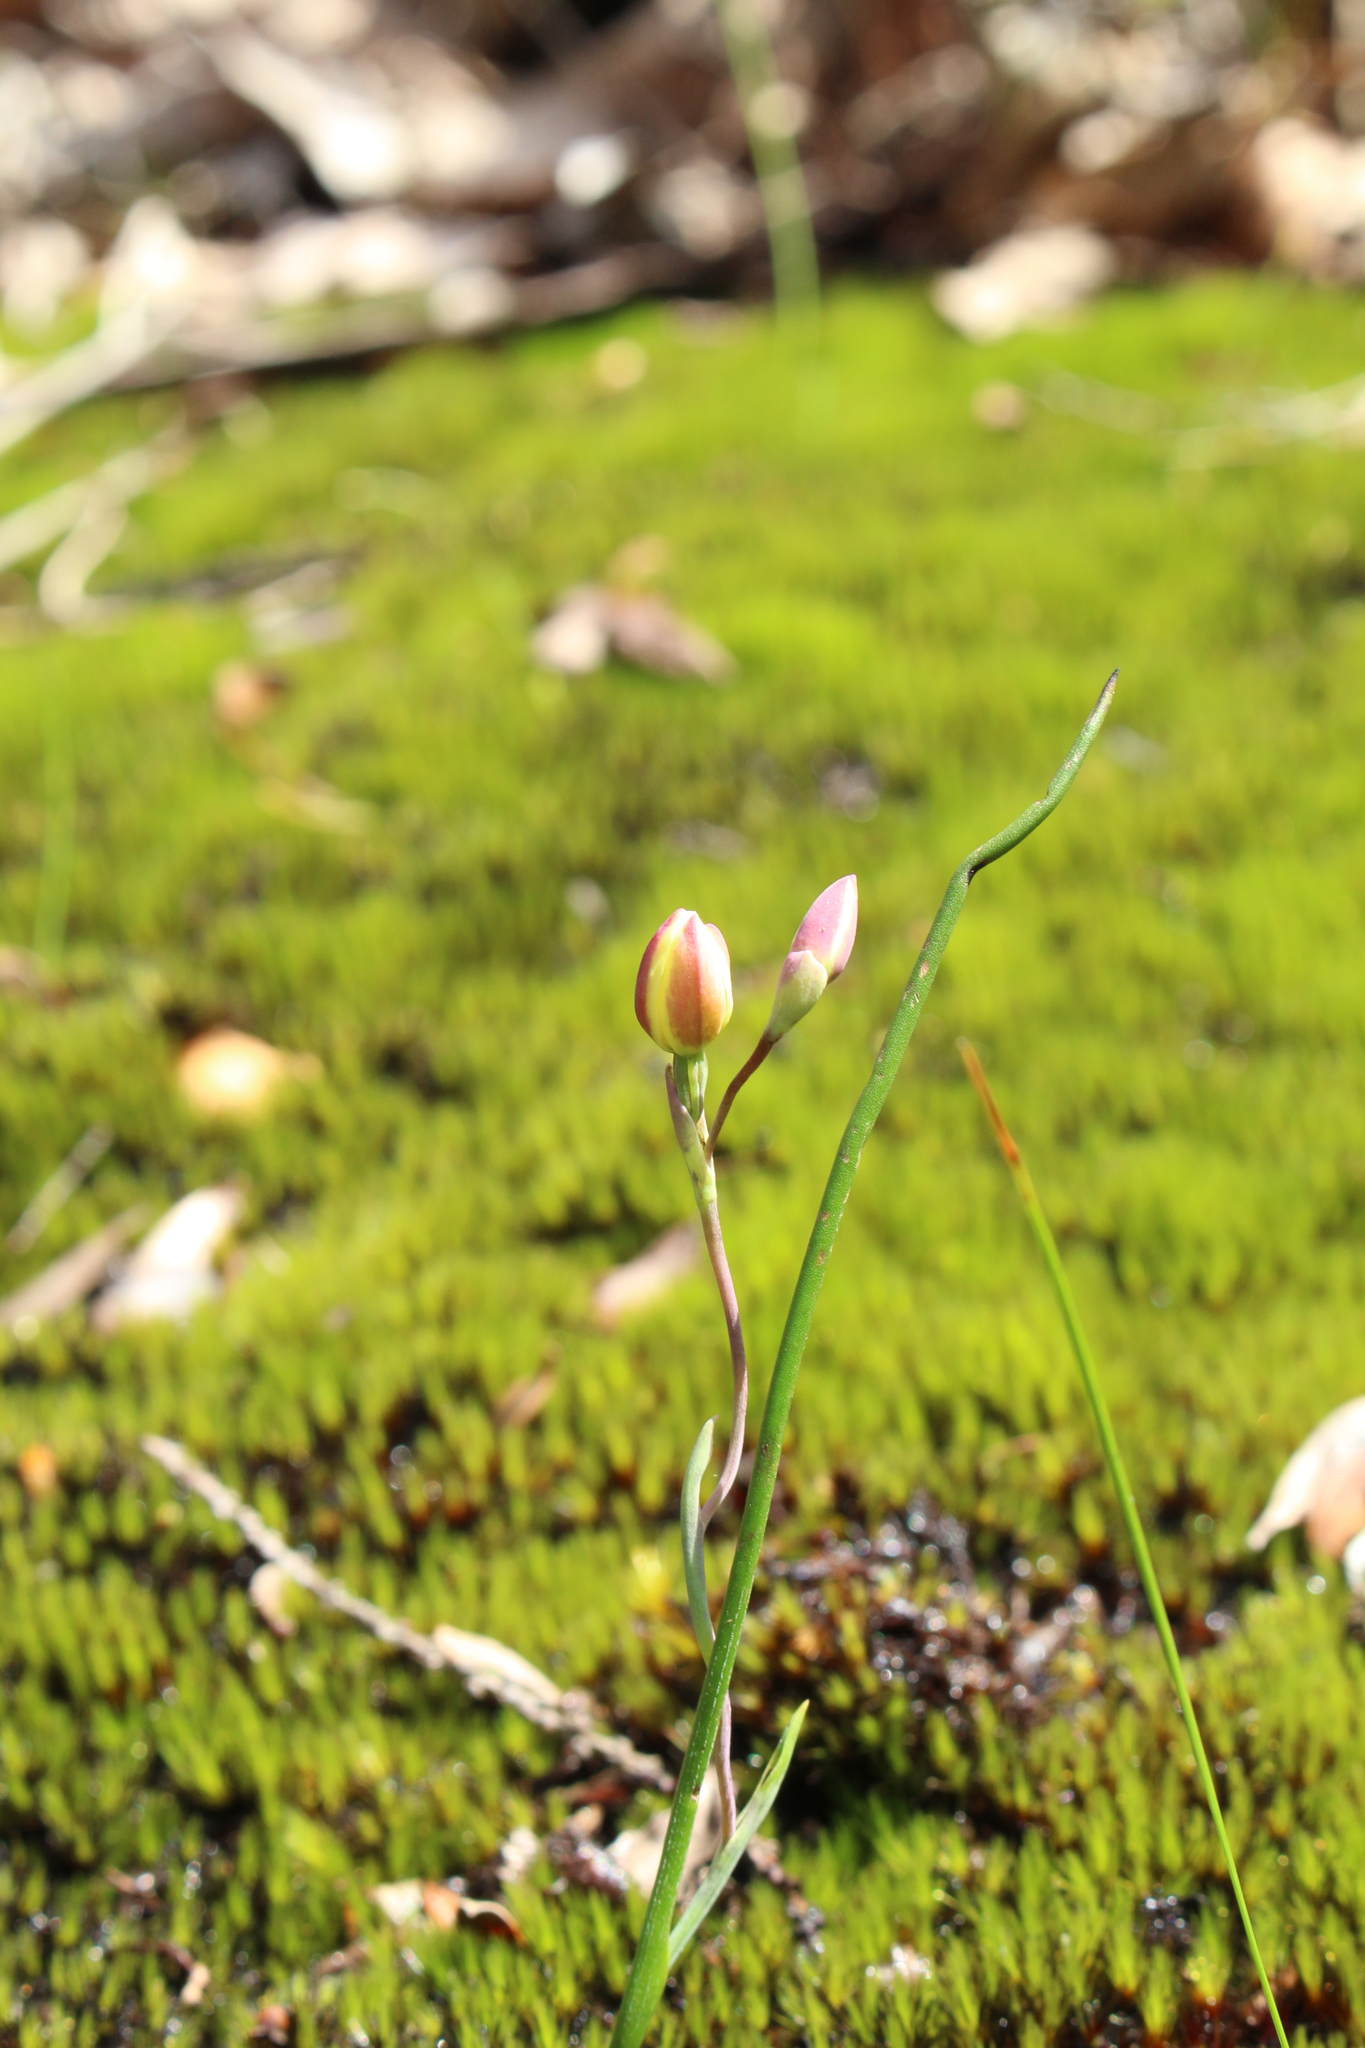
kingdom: Plantae
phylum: Tracheophyta
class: Liliopsida
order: Asparagales
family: Orchidaceae
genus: Thelymitra
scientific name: Thelymitra antennifera
